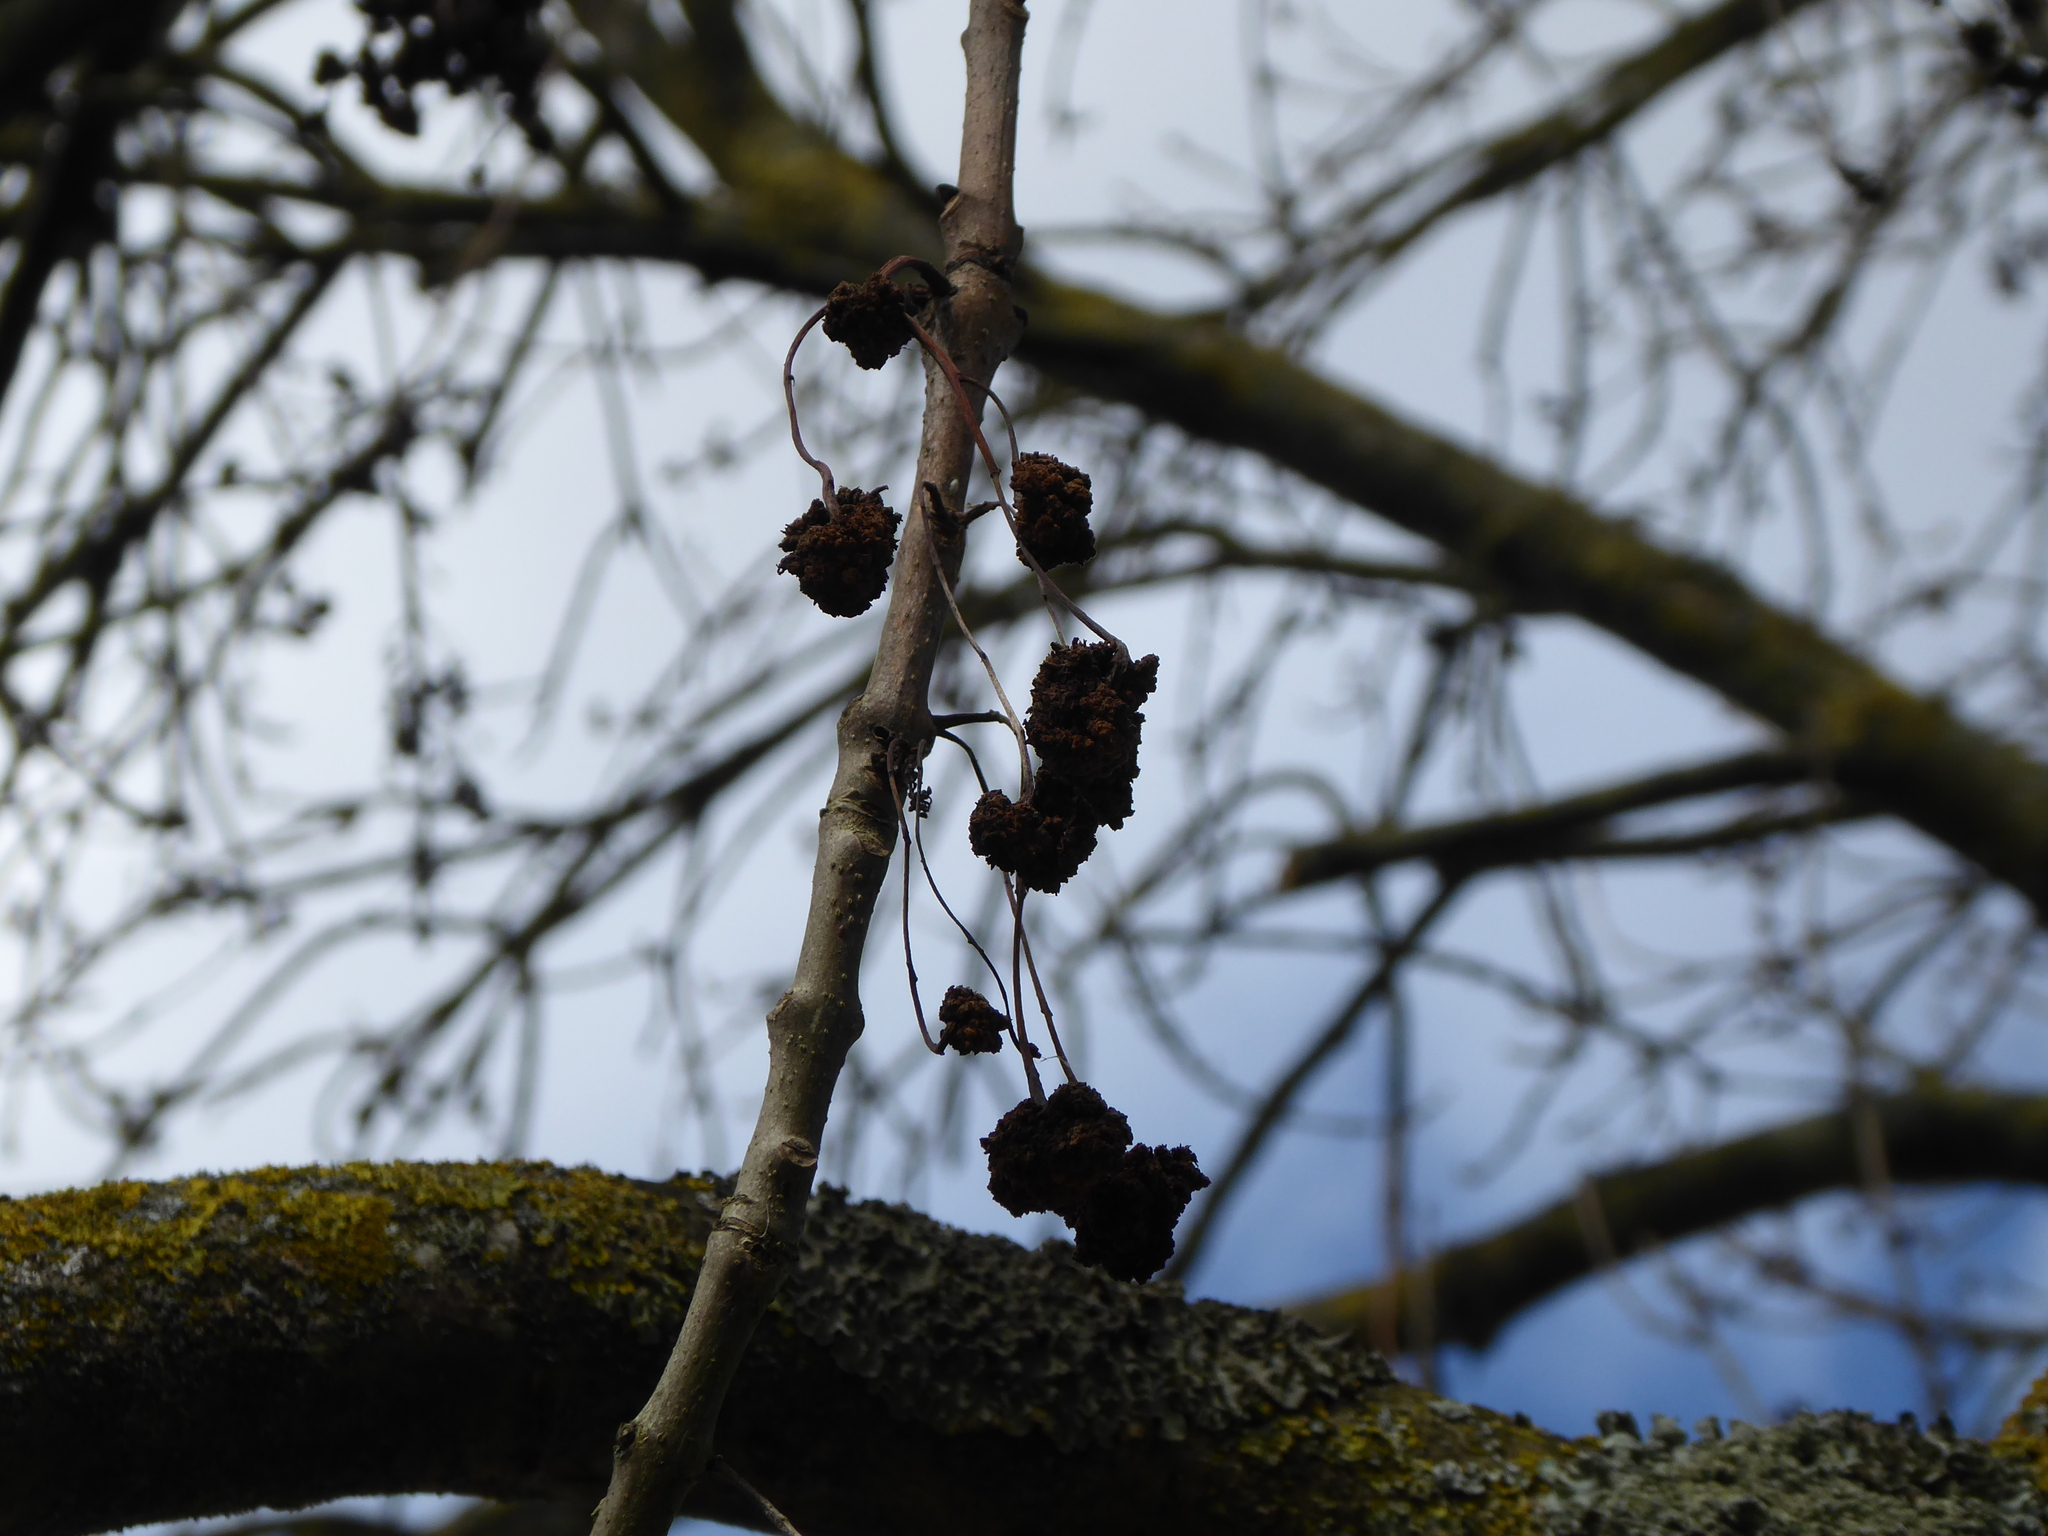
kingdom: Animalia
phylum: Arthropoda
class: Arachnida
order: Trombidiformes
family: Eriophyidae
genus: Aceria
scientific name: Aceria fraxinivora
